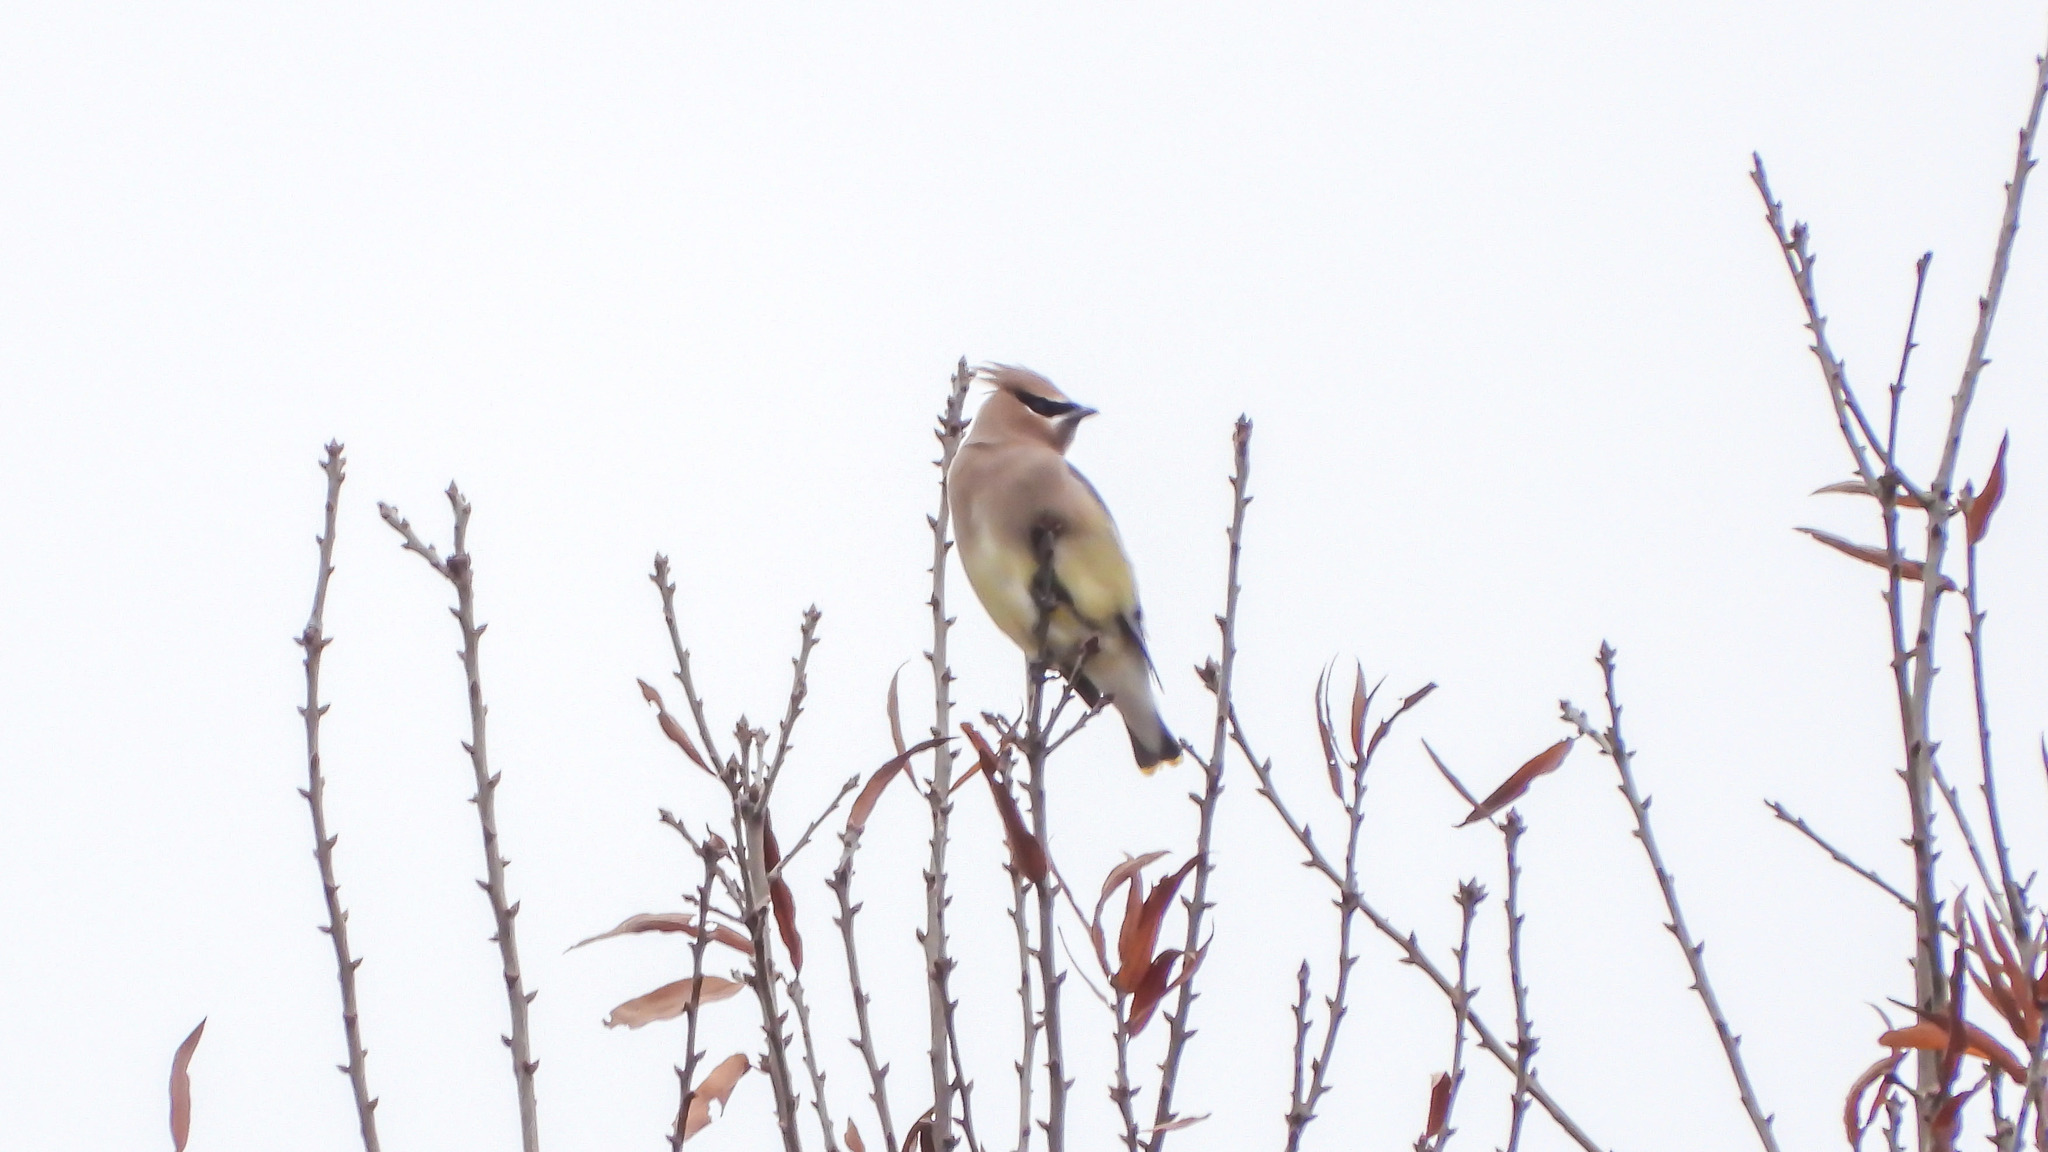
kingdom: Animalia
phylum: Chordata
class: Aves
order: Passeriformes
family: Bombycillidae
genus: Bombycilla
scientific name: Bombycilla cedrorum
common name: Cedar waxwing
